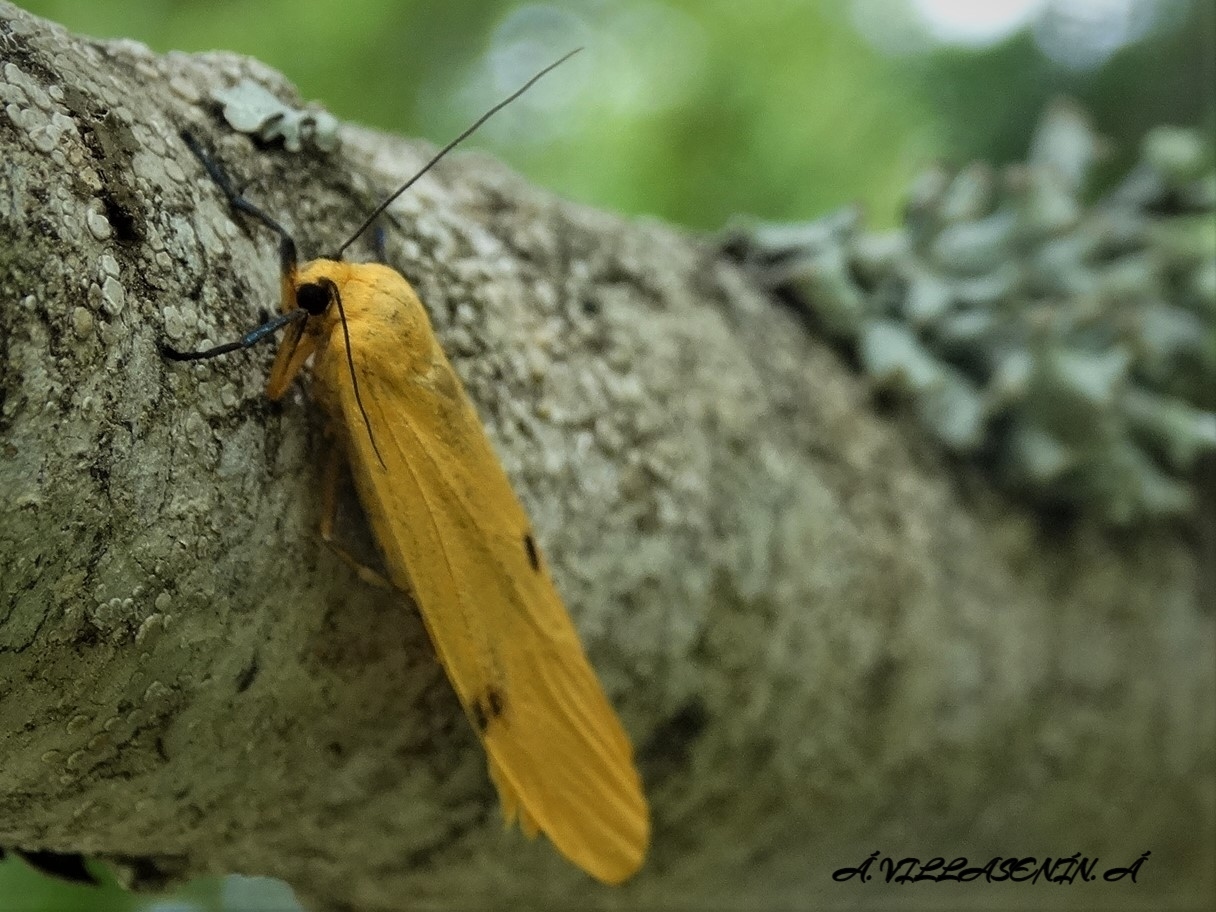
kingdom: Animalia
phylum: Arthropoda
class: Insecta
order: Lepidoptera
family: Erebidae
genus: Lithosia
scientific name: Lithosia quadra
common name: Four-spotted footman
